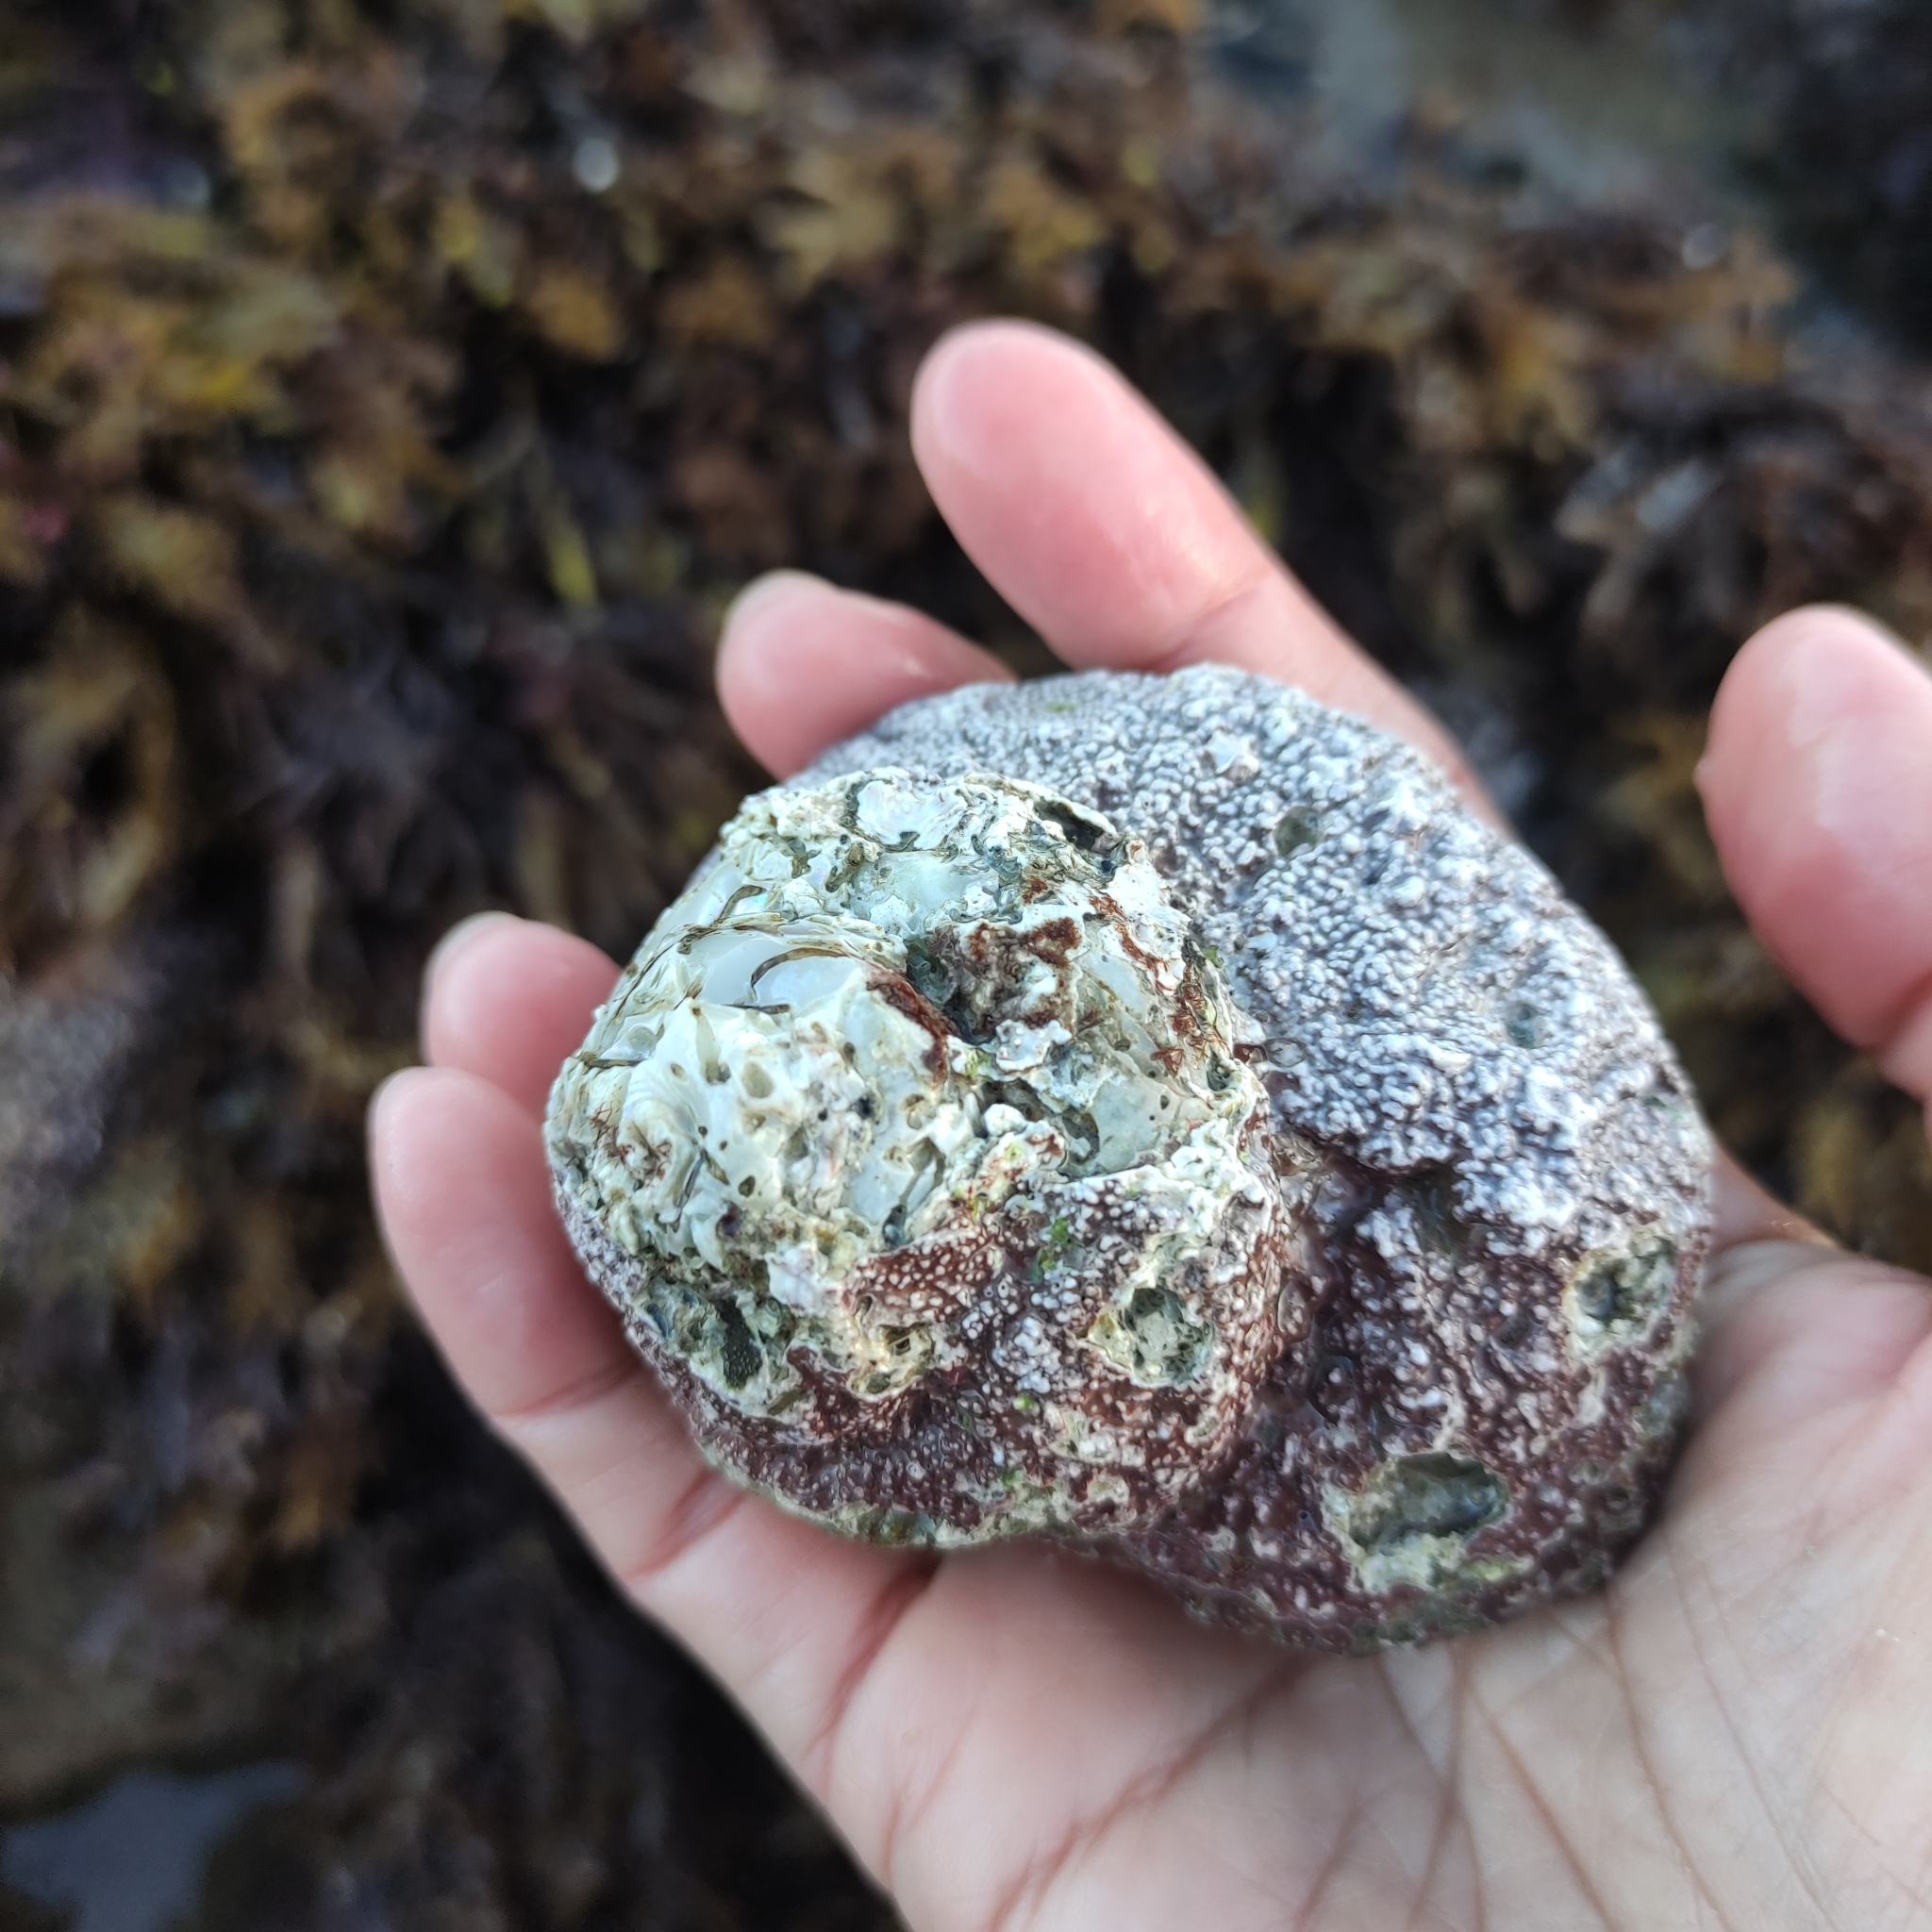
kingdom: Animalia
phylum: Mollusca
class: Gastropoda
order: Trochida
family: Turbinidae
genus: Cookia
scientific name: Cookia sulcata
